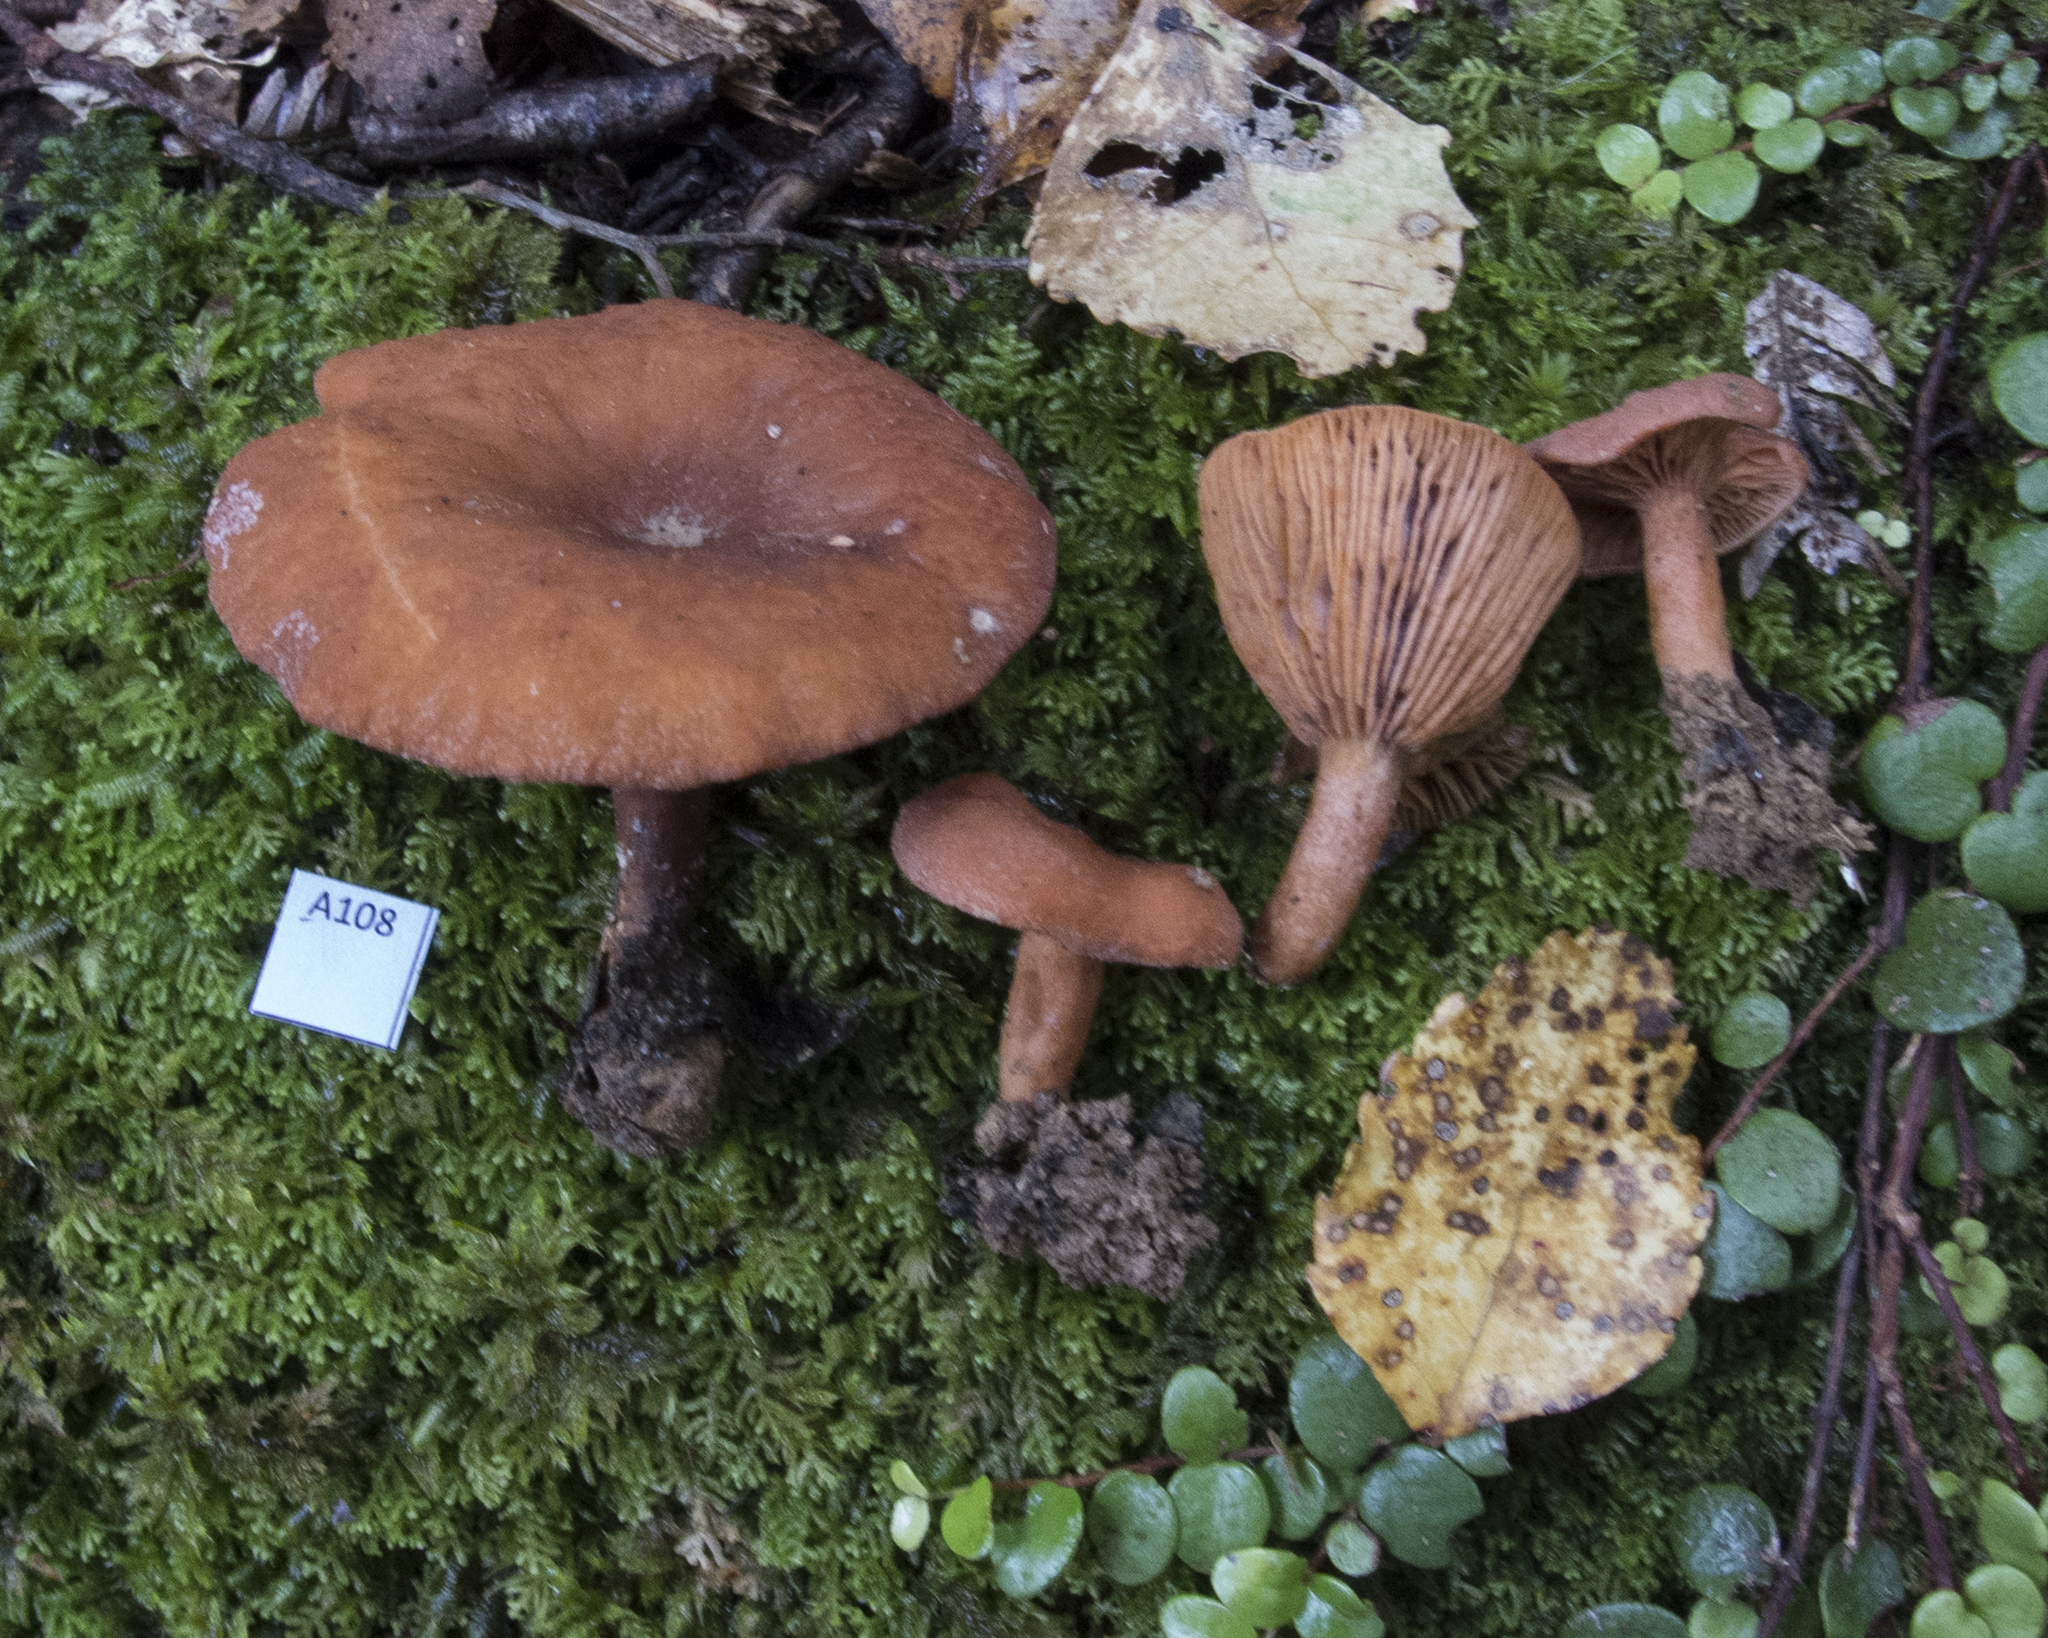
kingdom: Fungi
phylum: Basidiomycota
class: Agaricomycetes
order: Russulales
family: Russulaceae
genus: Lactarius
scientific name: Lactarius umerensis
